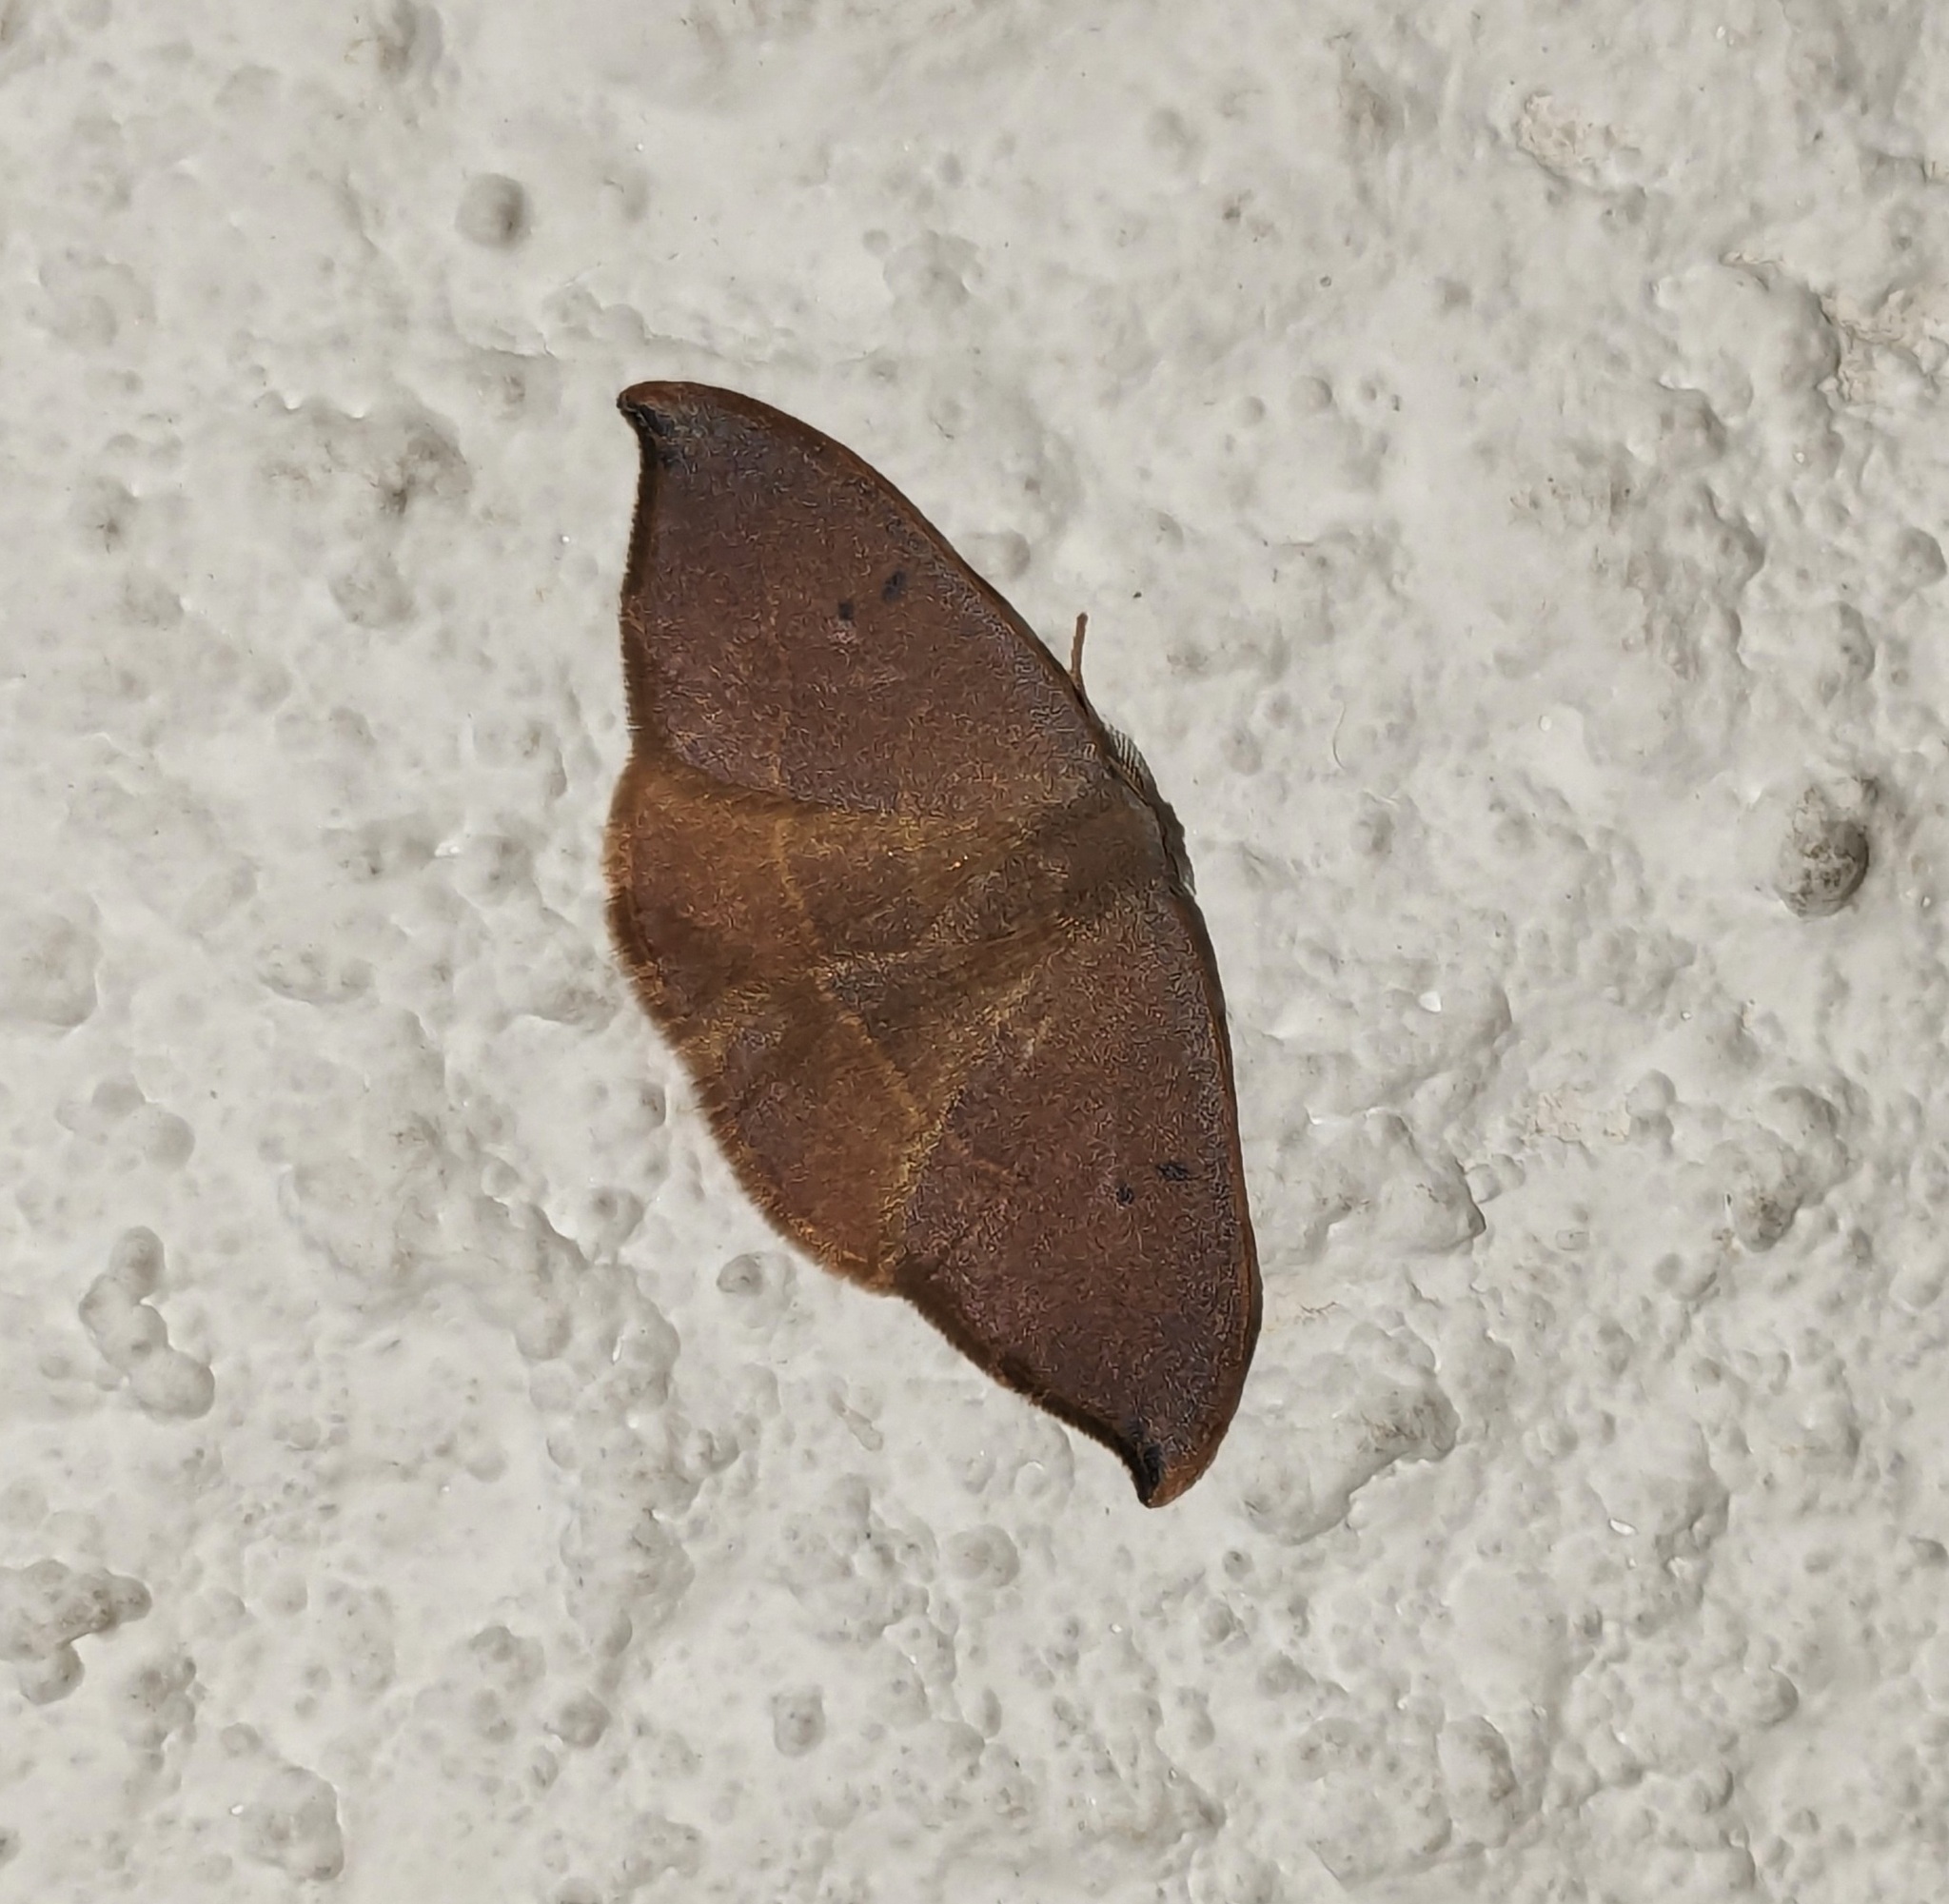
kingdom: Animalia
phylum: Arthropoda
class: Insecta
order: Lepidoptera
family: Drepanidae
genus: Watsonalla
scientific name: Watsonalla uncinula
